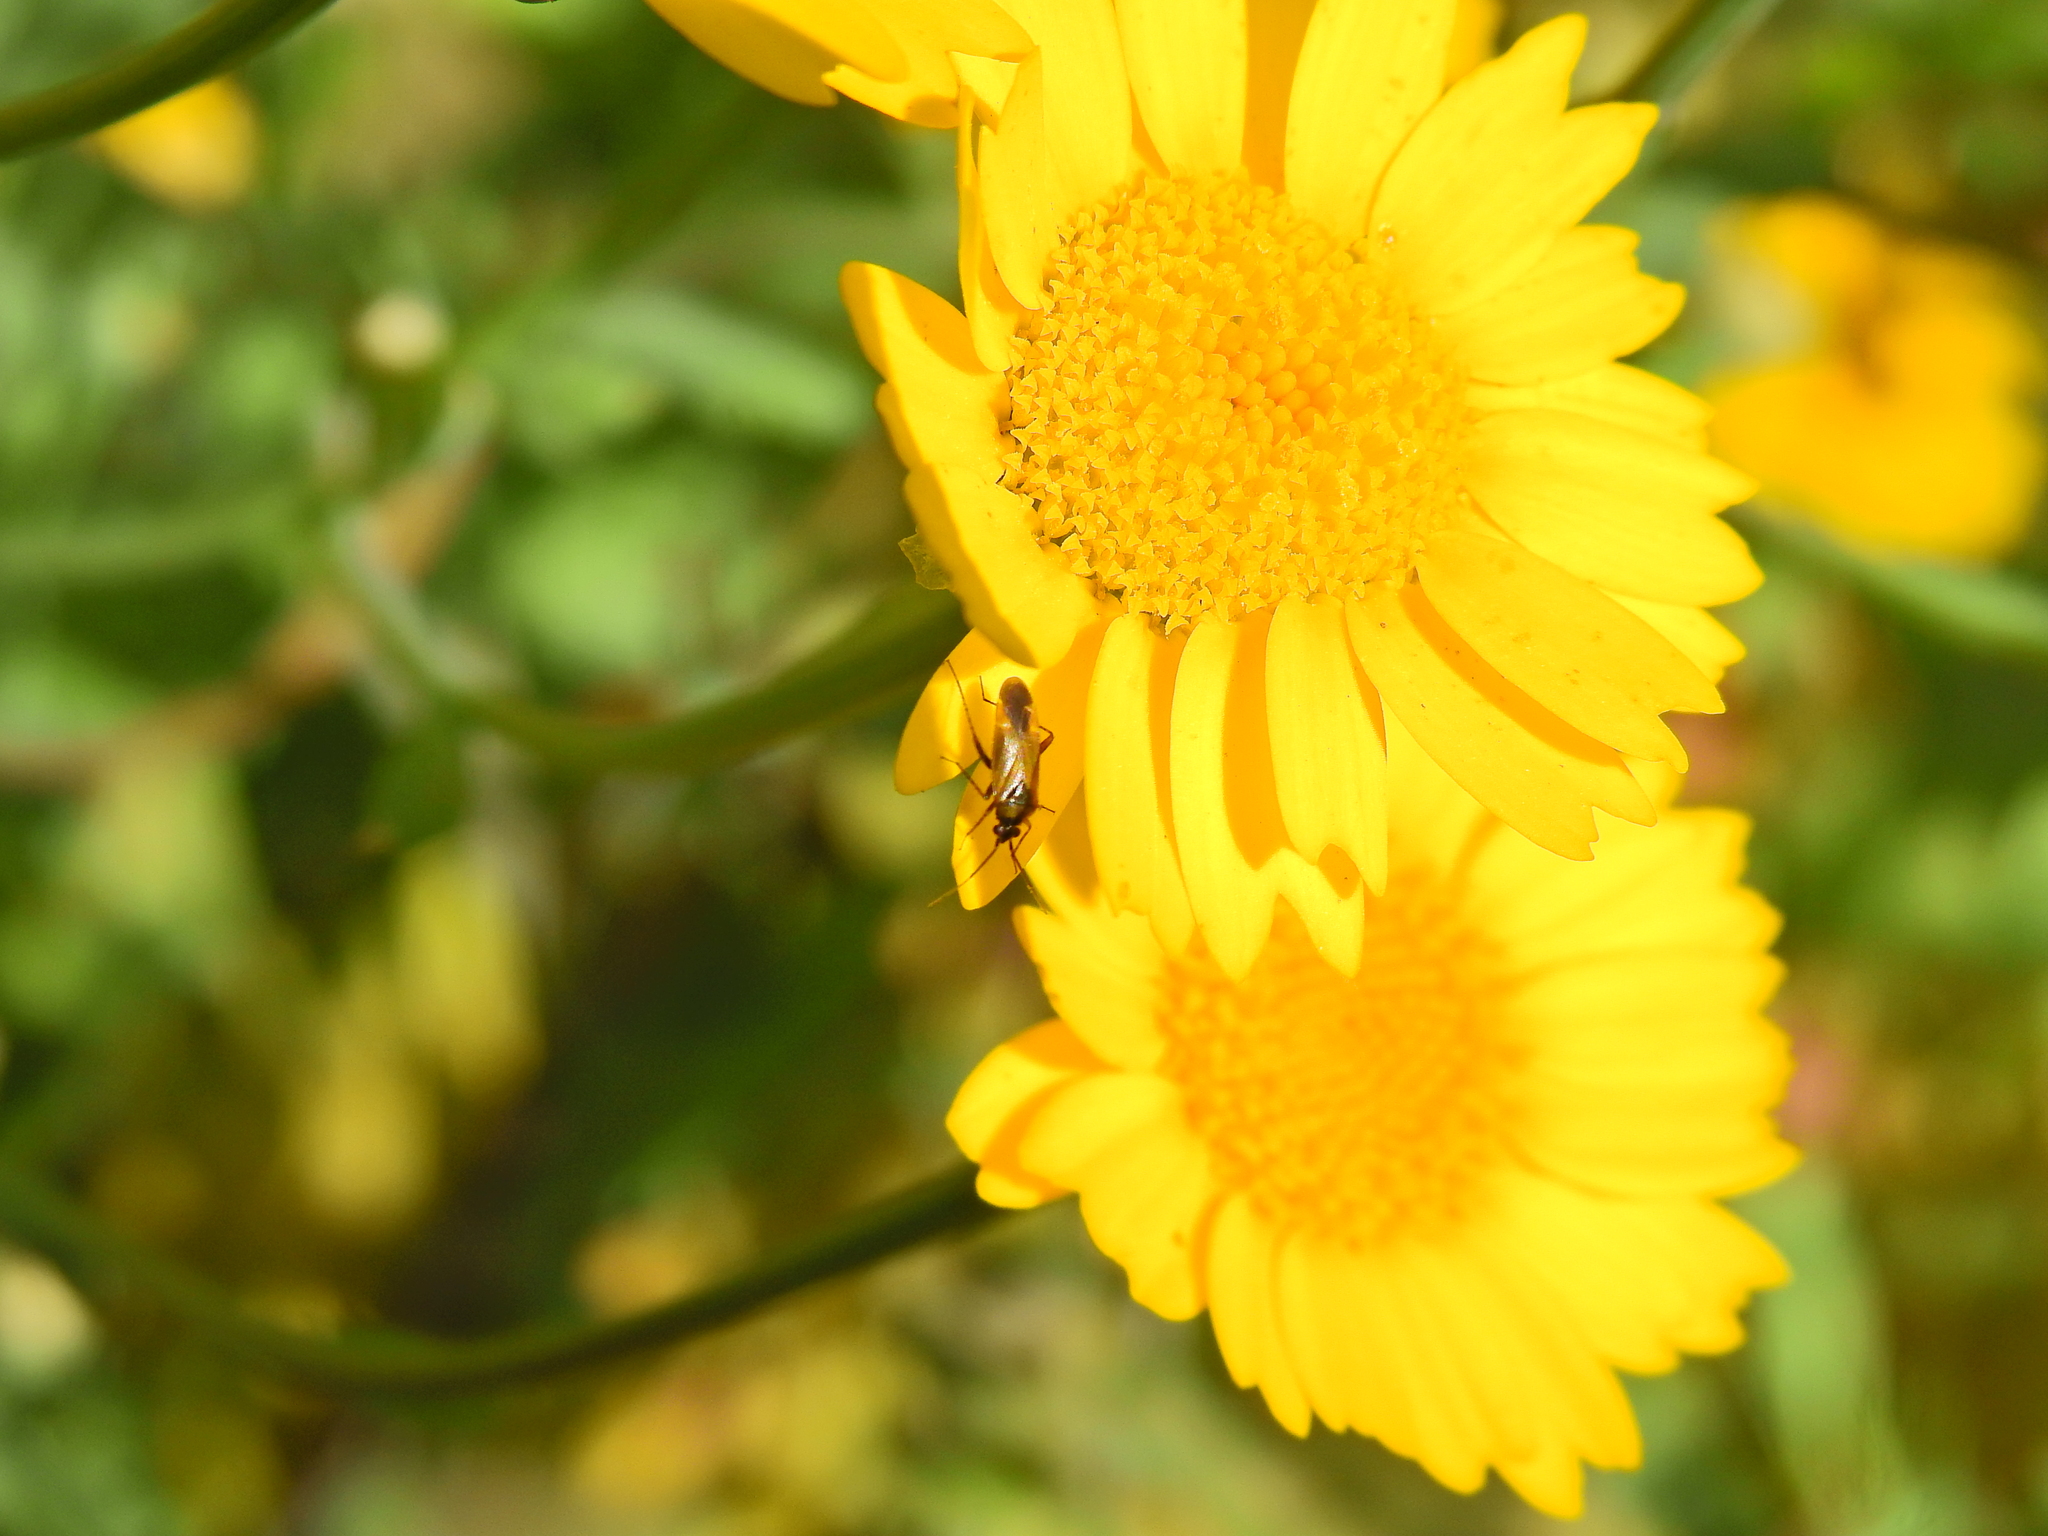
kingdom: Animalia
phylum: Arthropoda
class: Insecta
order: Hemiptera
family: Miridae
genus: Plagiognathus
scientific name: Plagiognathus arbustorum
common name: Plant bug
